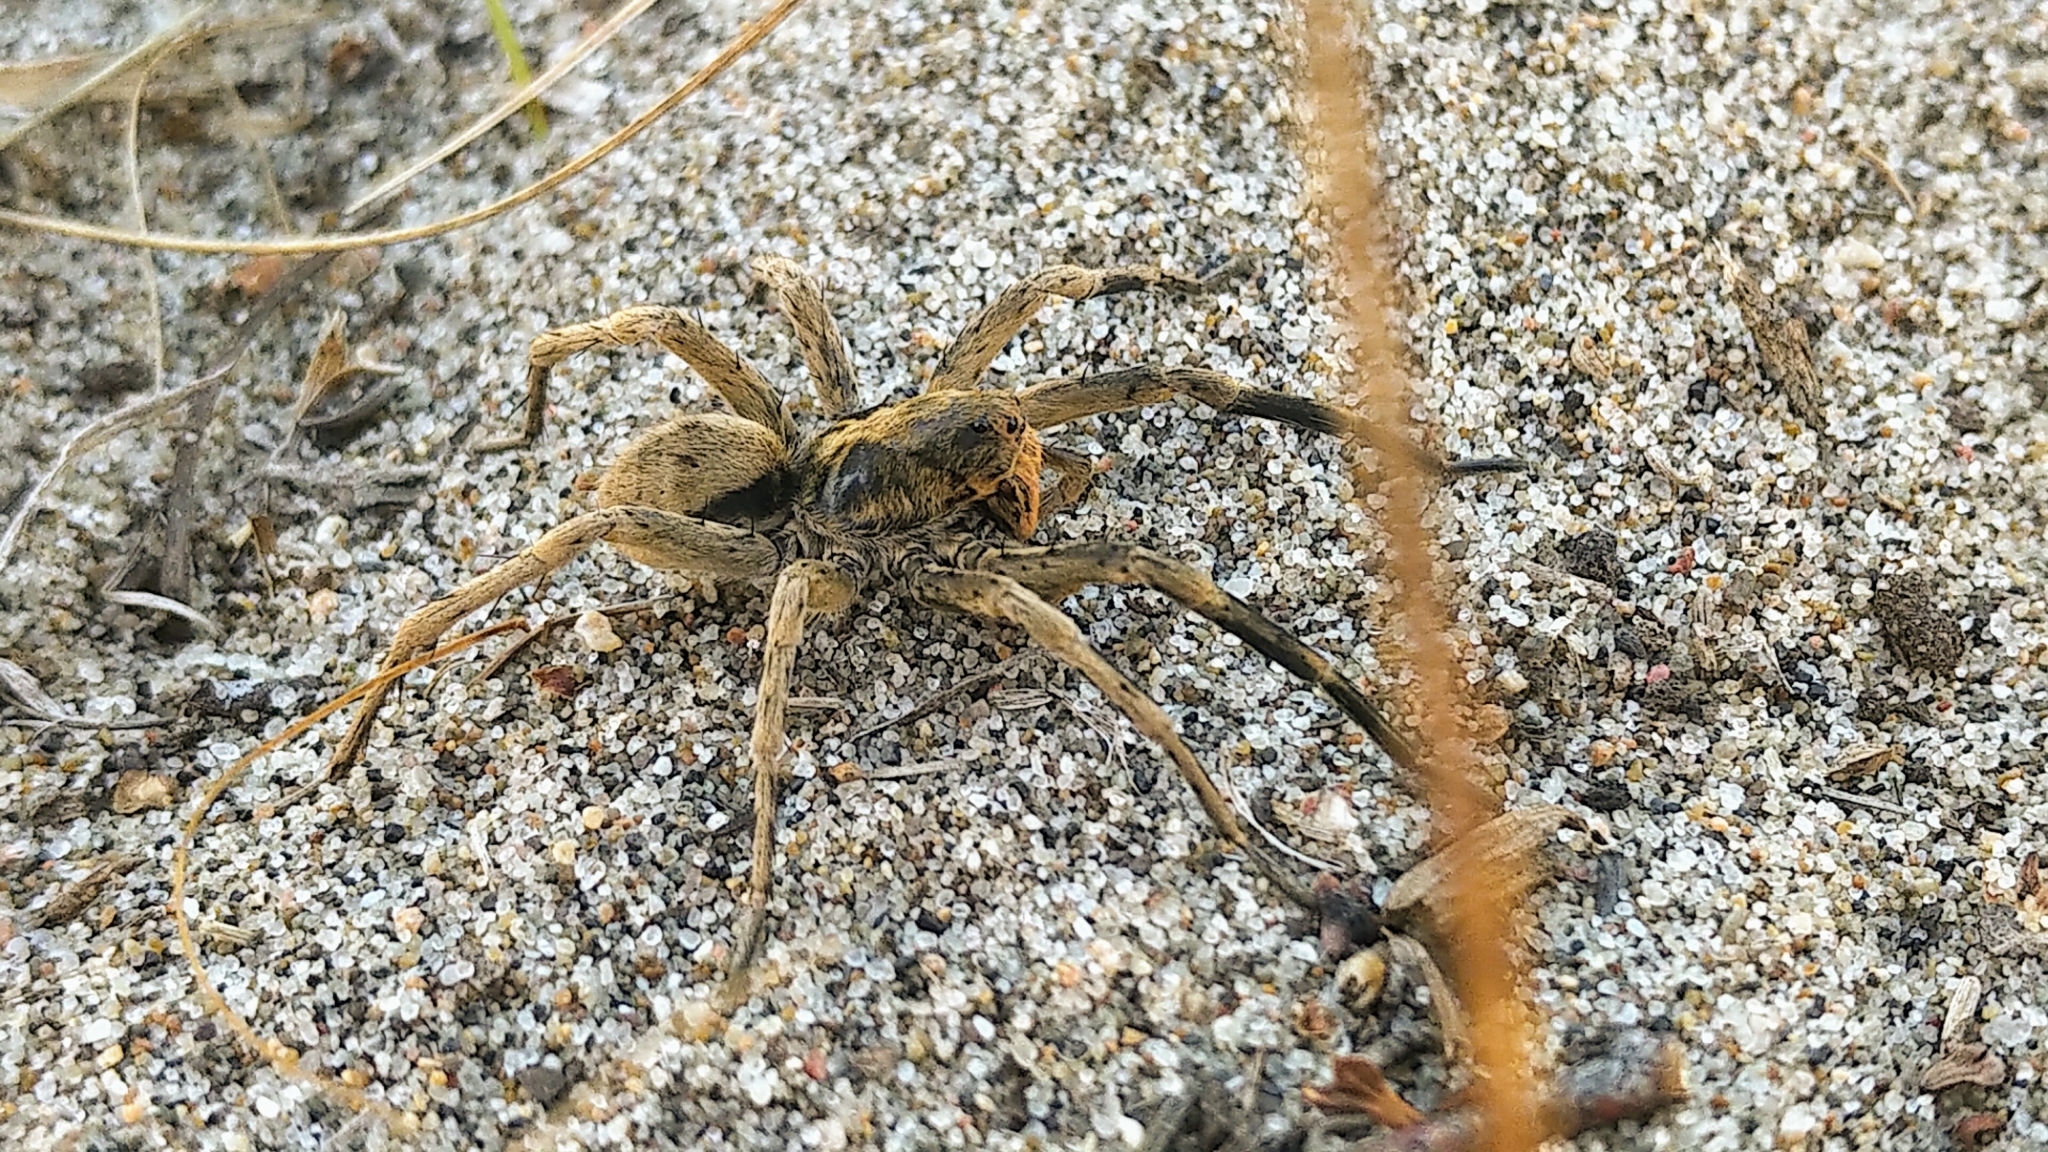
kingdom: Animalia
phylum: Arthropoda
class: Arachnida
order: Araneae
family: Lycosidae
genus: Geolycosa
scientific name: Geolycosa missouriensis
